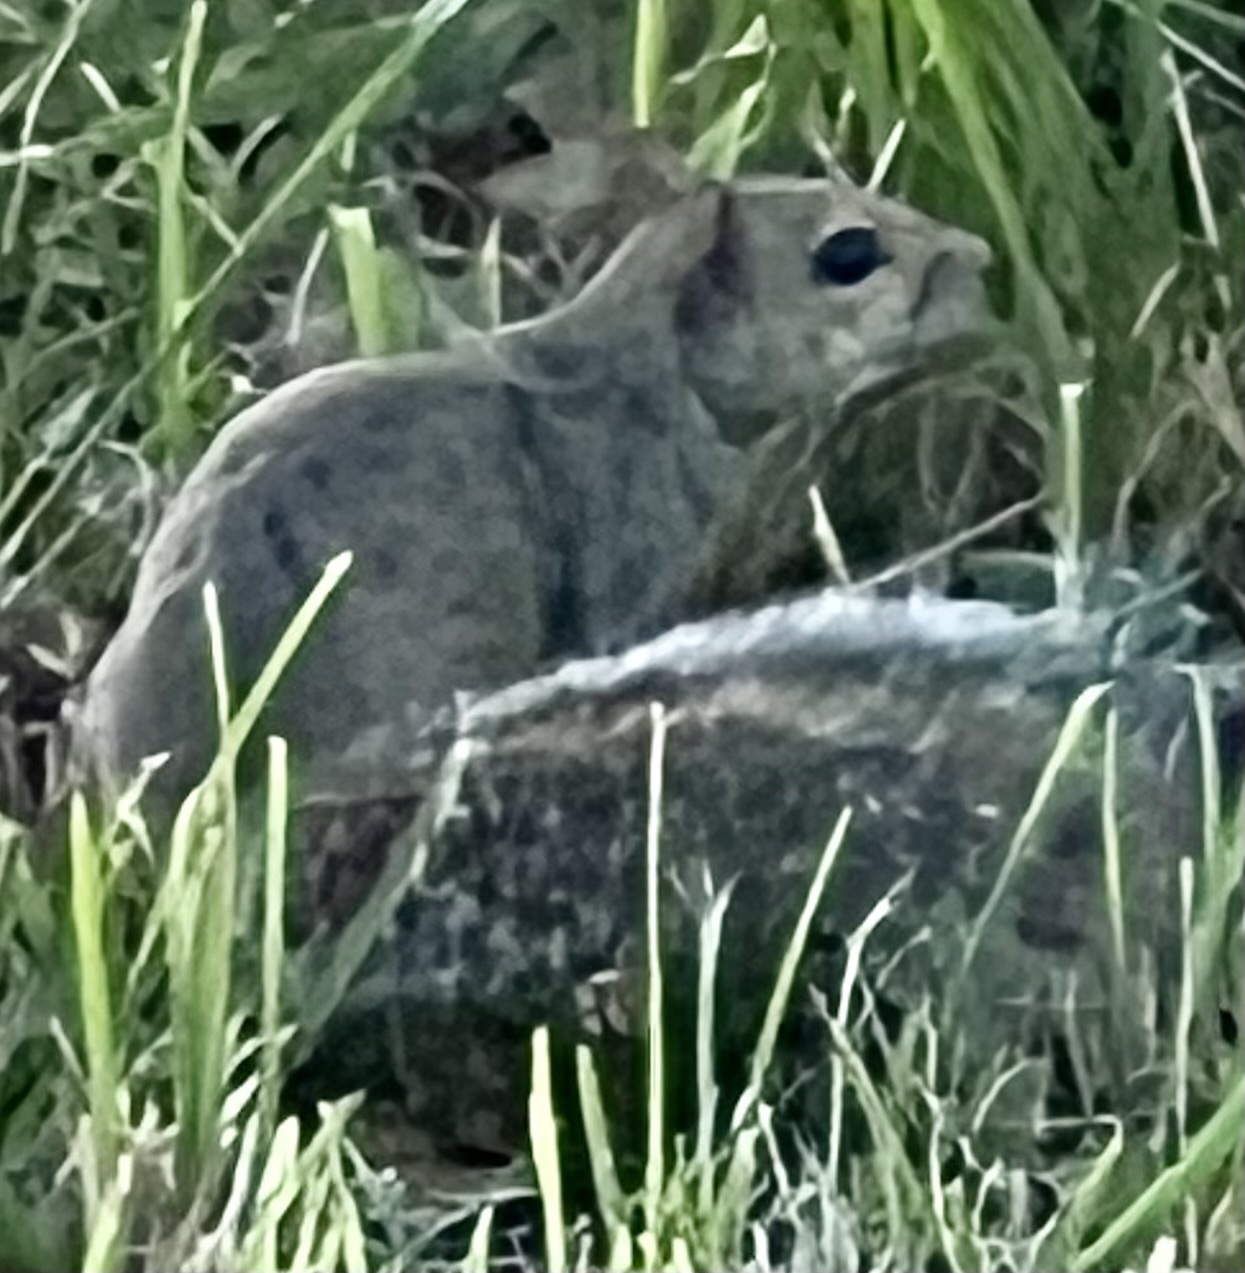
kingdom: Animalia
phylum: Chordata
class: Mammalia
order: Rodentia
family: Sciuridae
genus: Sciurus
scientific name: Sciurus carolinensis
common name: Eastern gray squirrel
